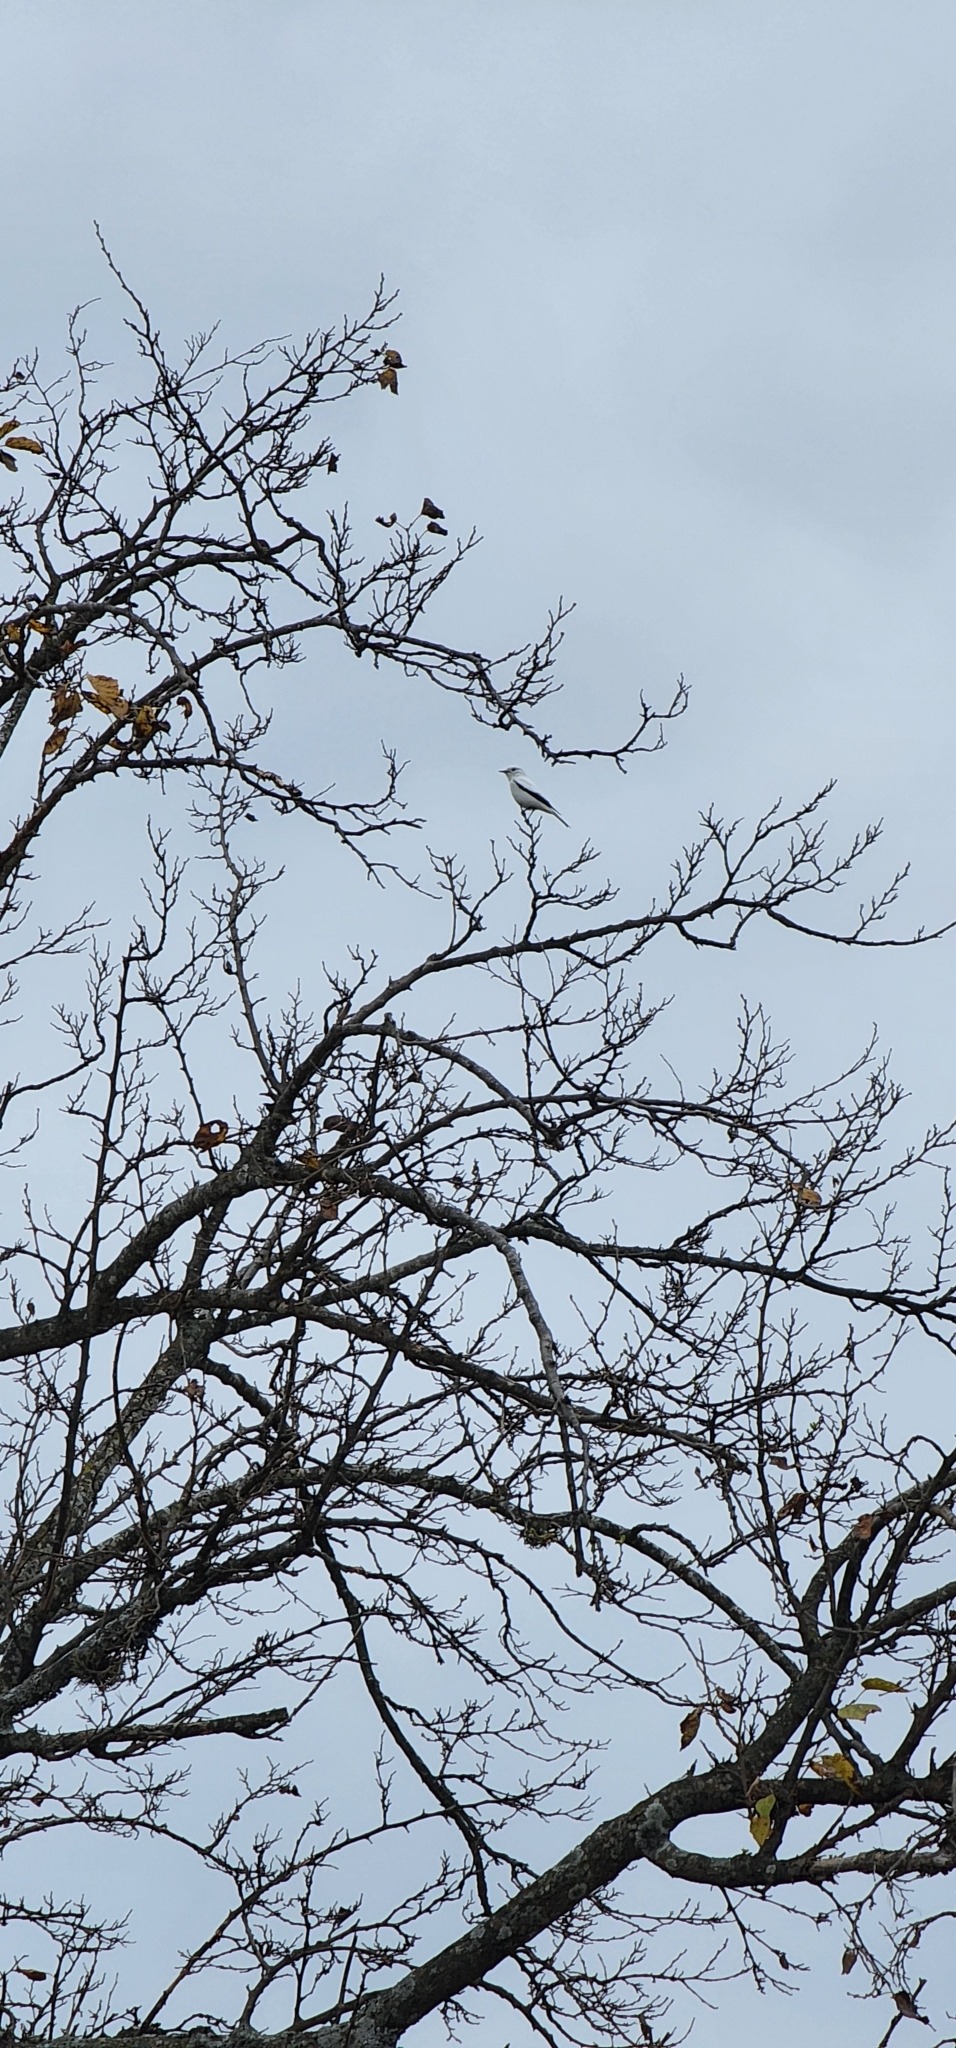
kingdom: Animalia
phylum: Chordata
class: Aves
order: Passeriformes
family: Tyrannidae
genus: Xolmis
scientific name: Xolmis irupero
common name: White monjita
